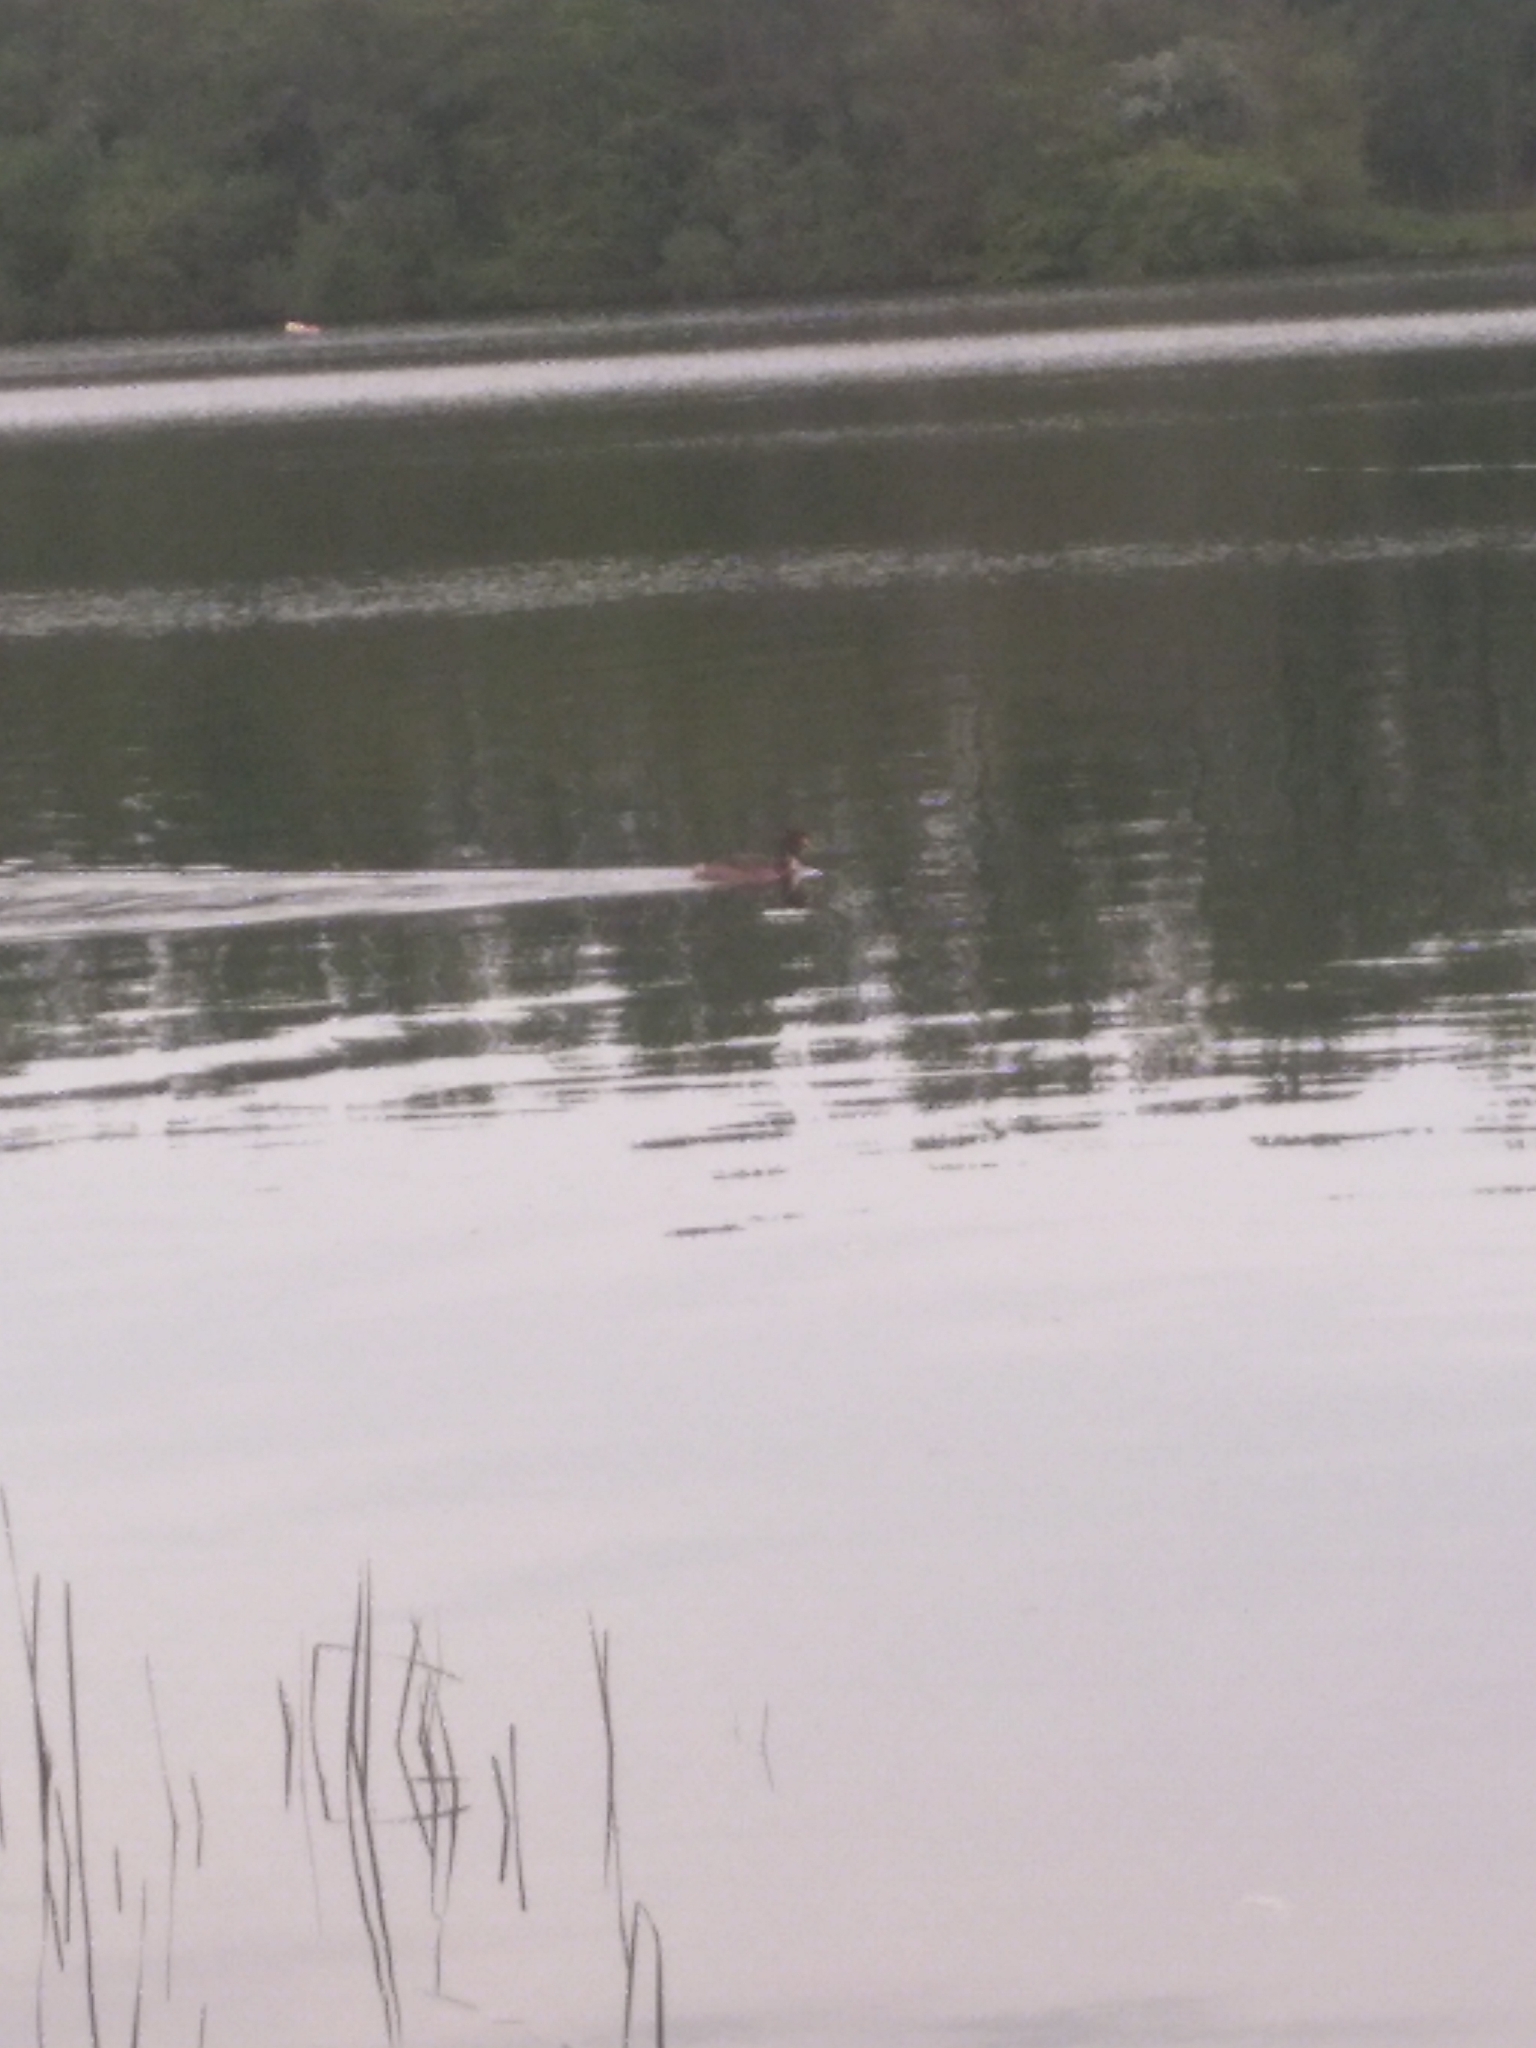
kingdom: Animalia
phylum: Chordata
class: Aves
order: Podicipediformes
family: Podicipedidae
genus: Podiceps
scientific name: Podiceps cristatus
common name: Great crested grebe
